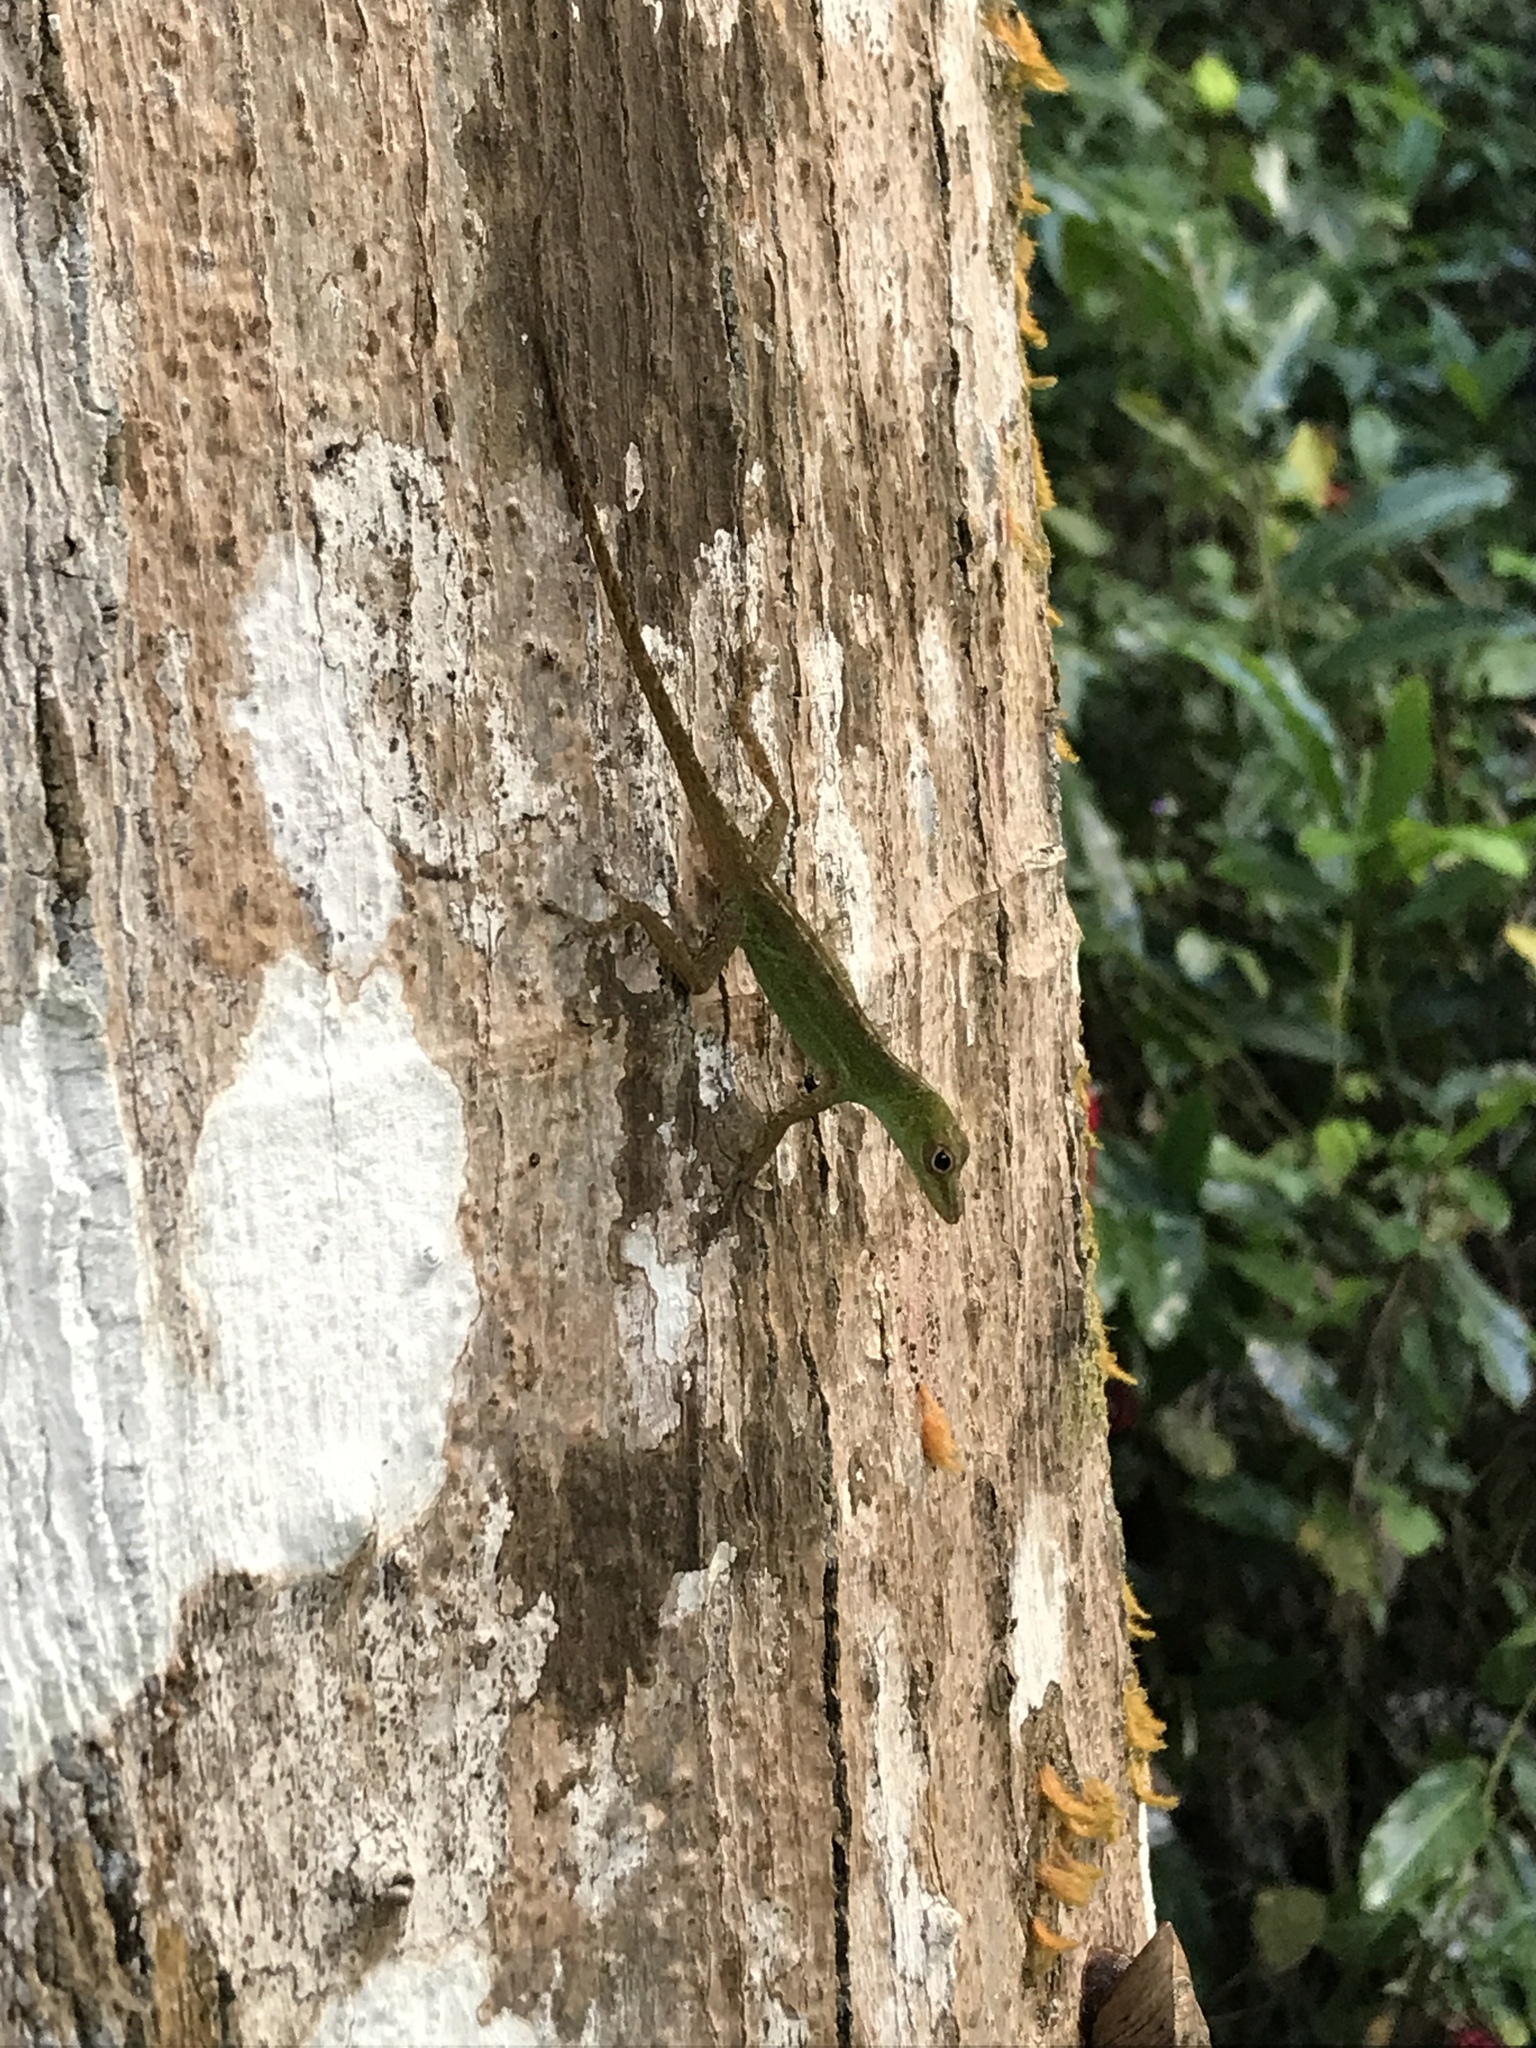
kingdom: Animalia
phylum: Chordata
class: Squamata
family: Dactyloidae
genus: Anolis
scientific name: Anolis evermanni
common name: Emerald anole
